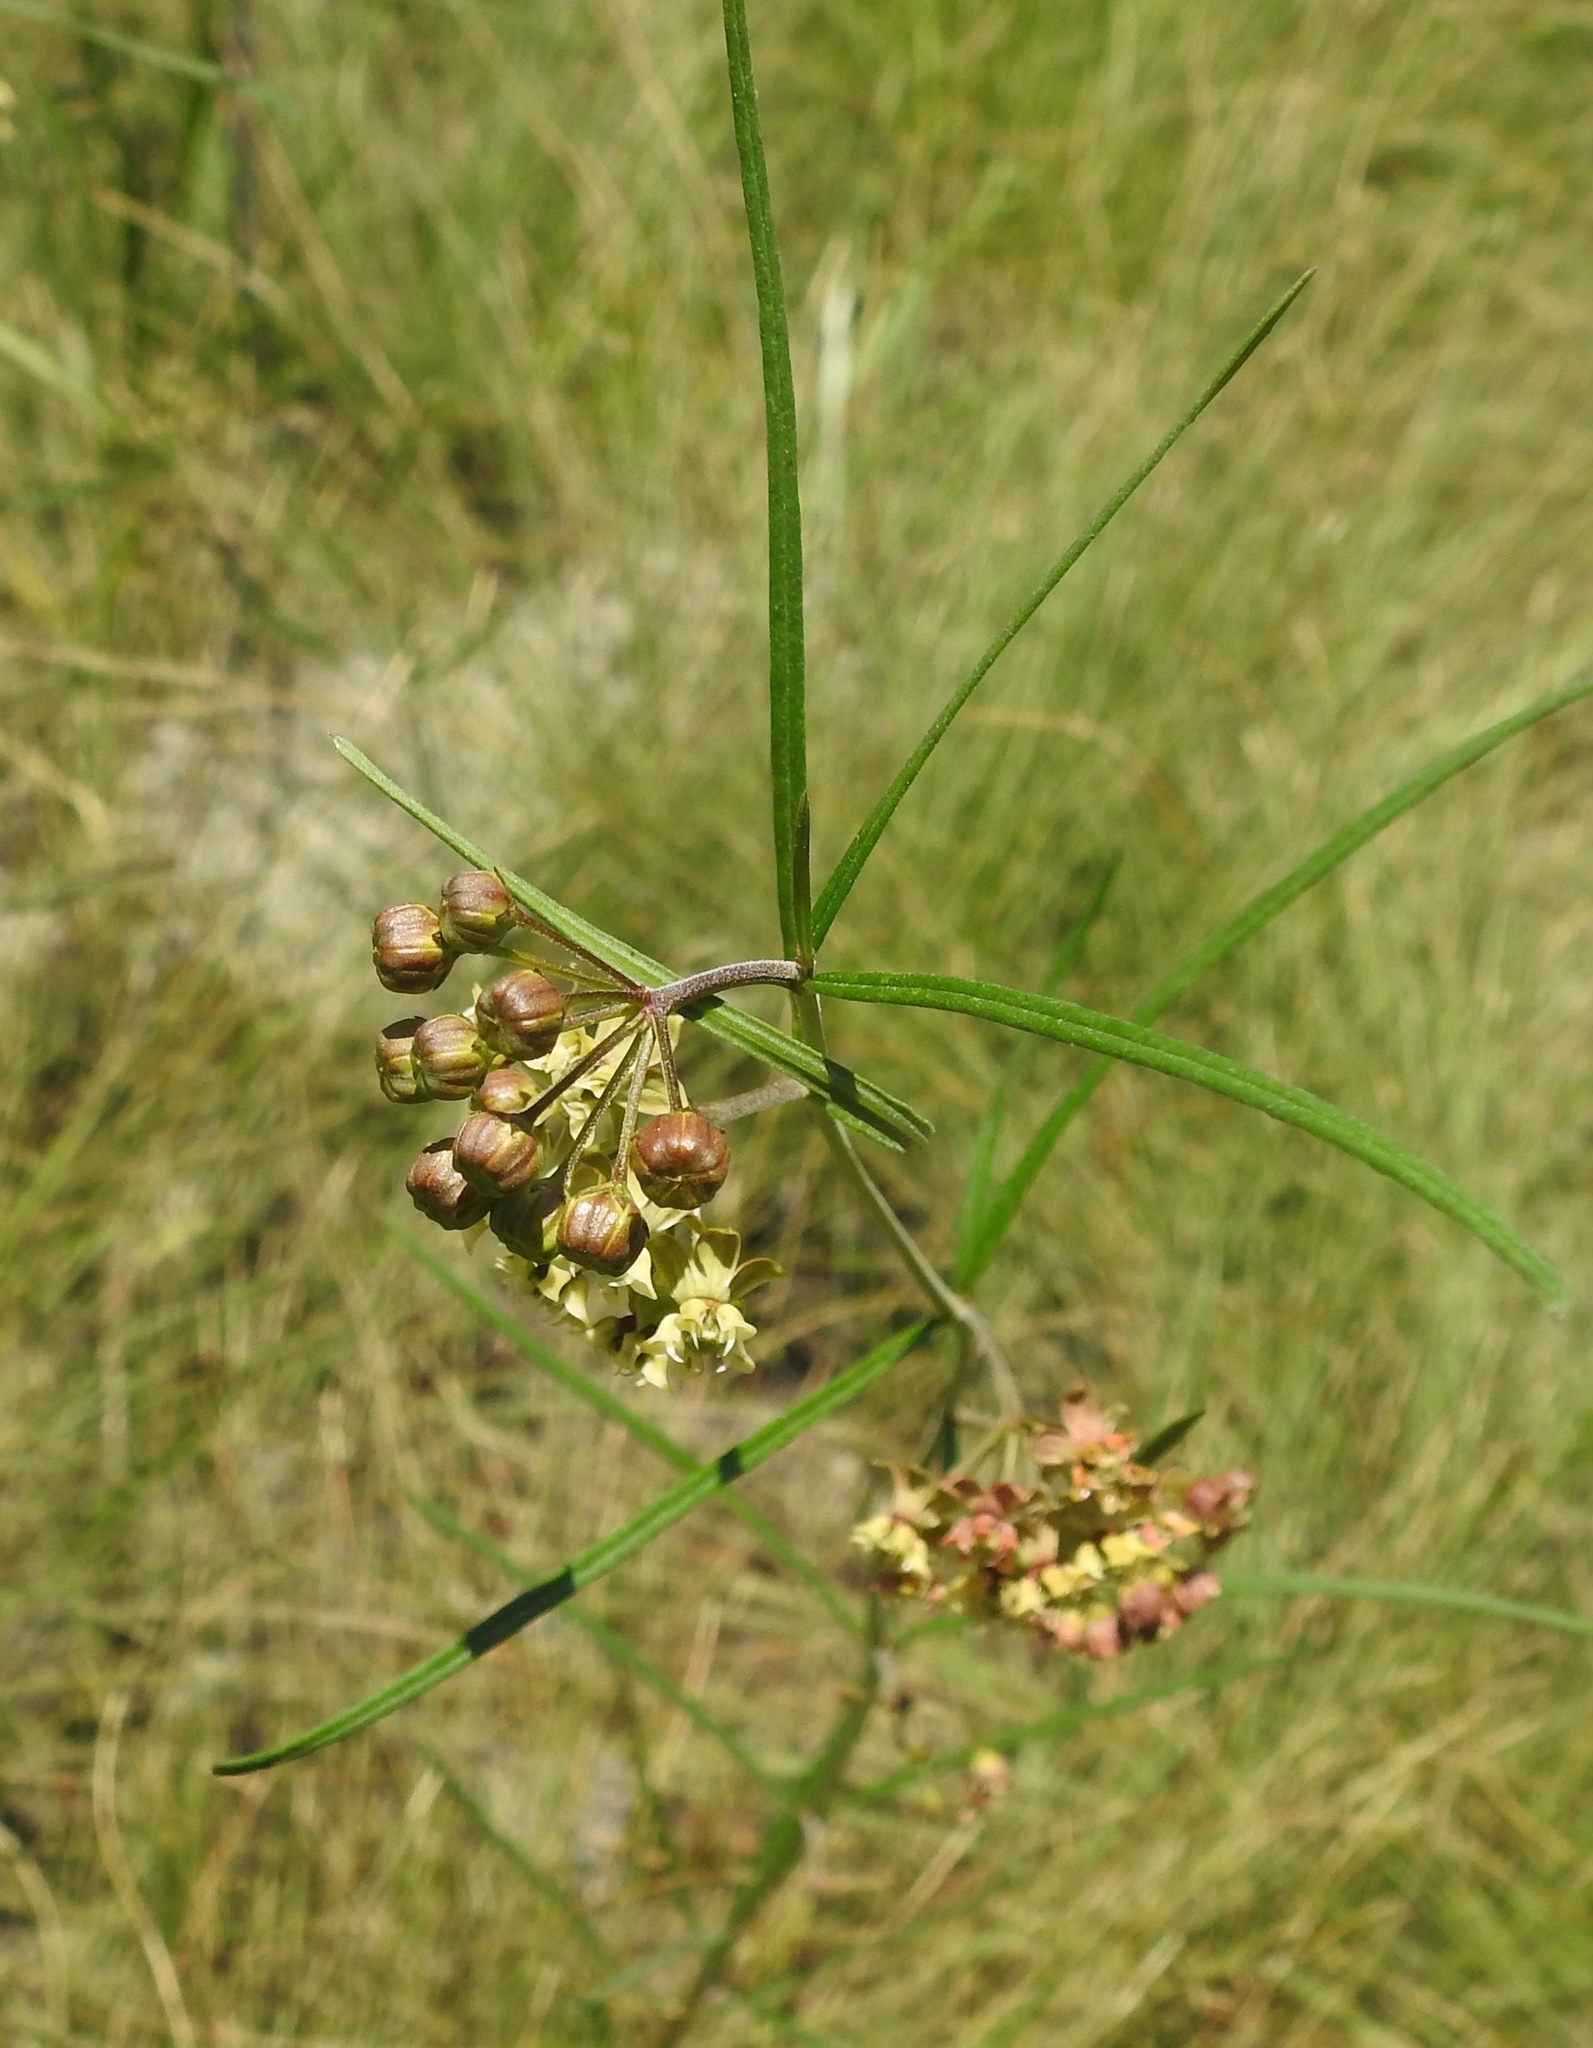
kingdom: Plantae
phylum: Tracheophyta
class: Magnoliopsida
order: Gentianales
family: Apocynaceae
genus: Asclepias
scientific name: Asclepias viridula
